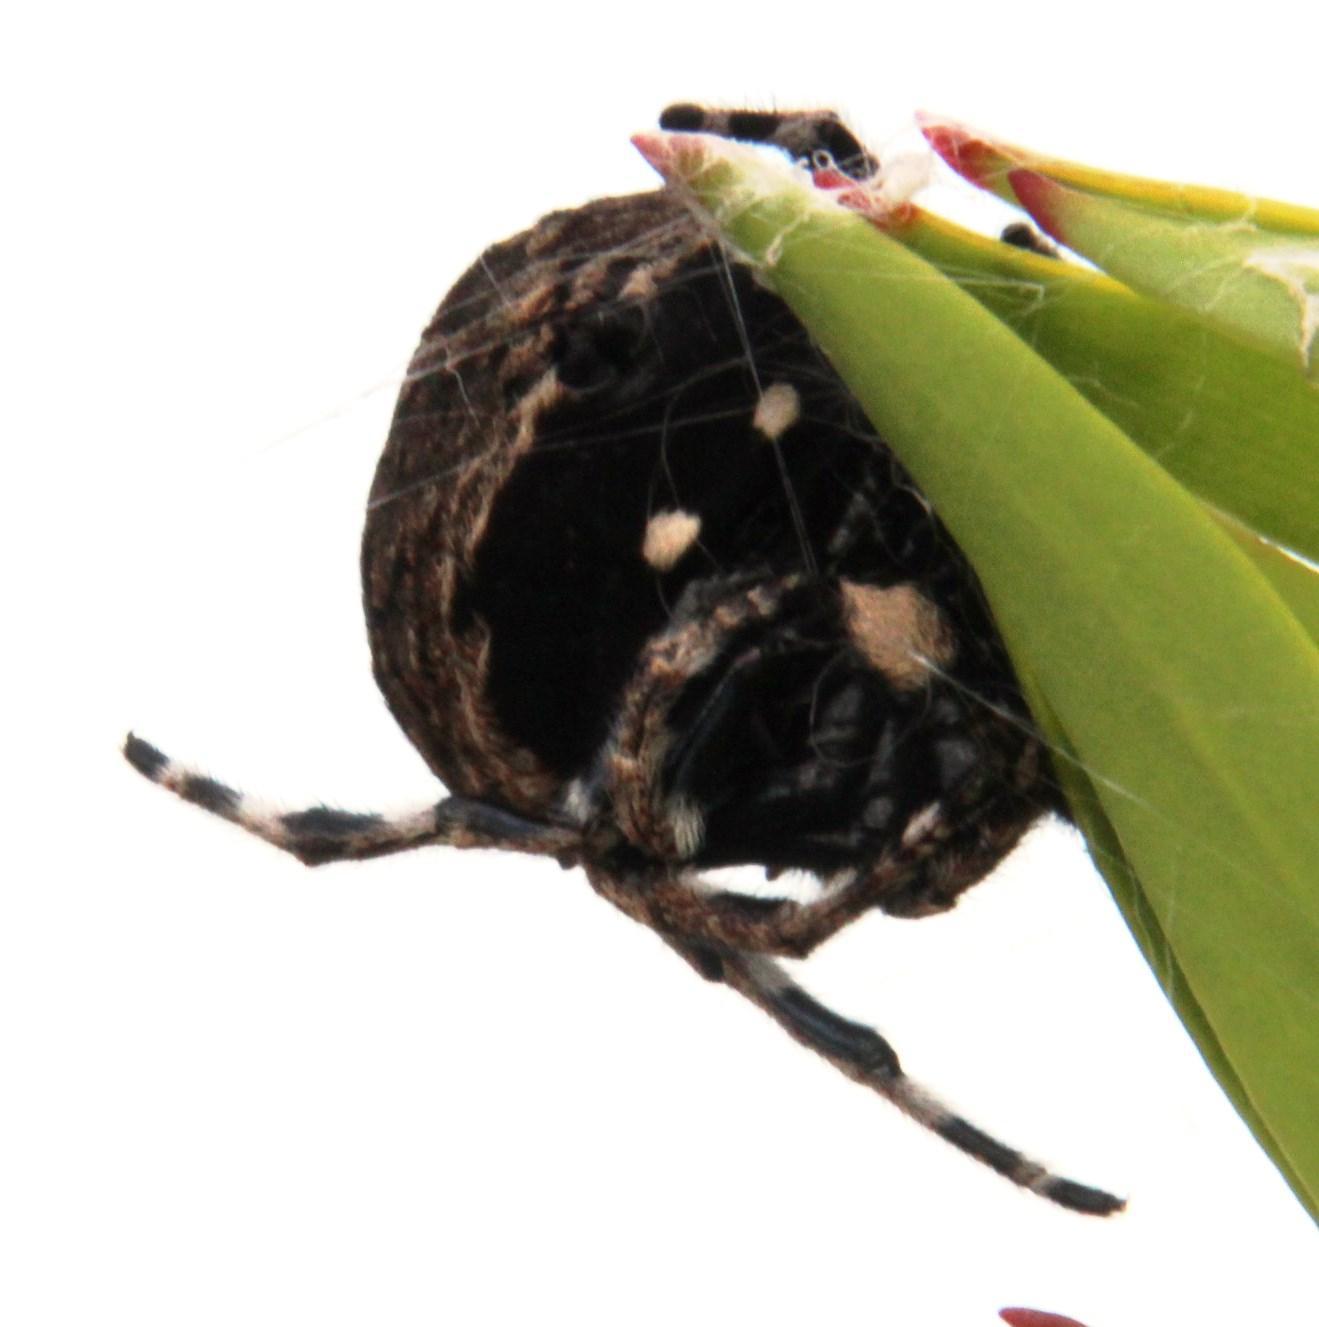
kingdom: Animalia
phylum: Arthropoda
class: Arachnida
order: Araneae
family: Araneidae
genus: Caerostris
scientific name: Caerostris sexcuspidata
